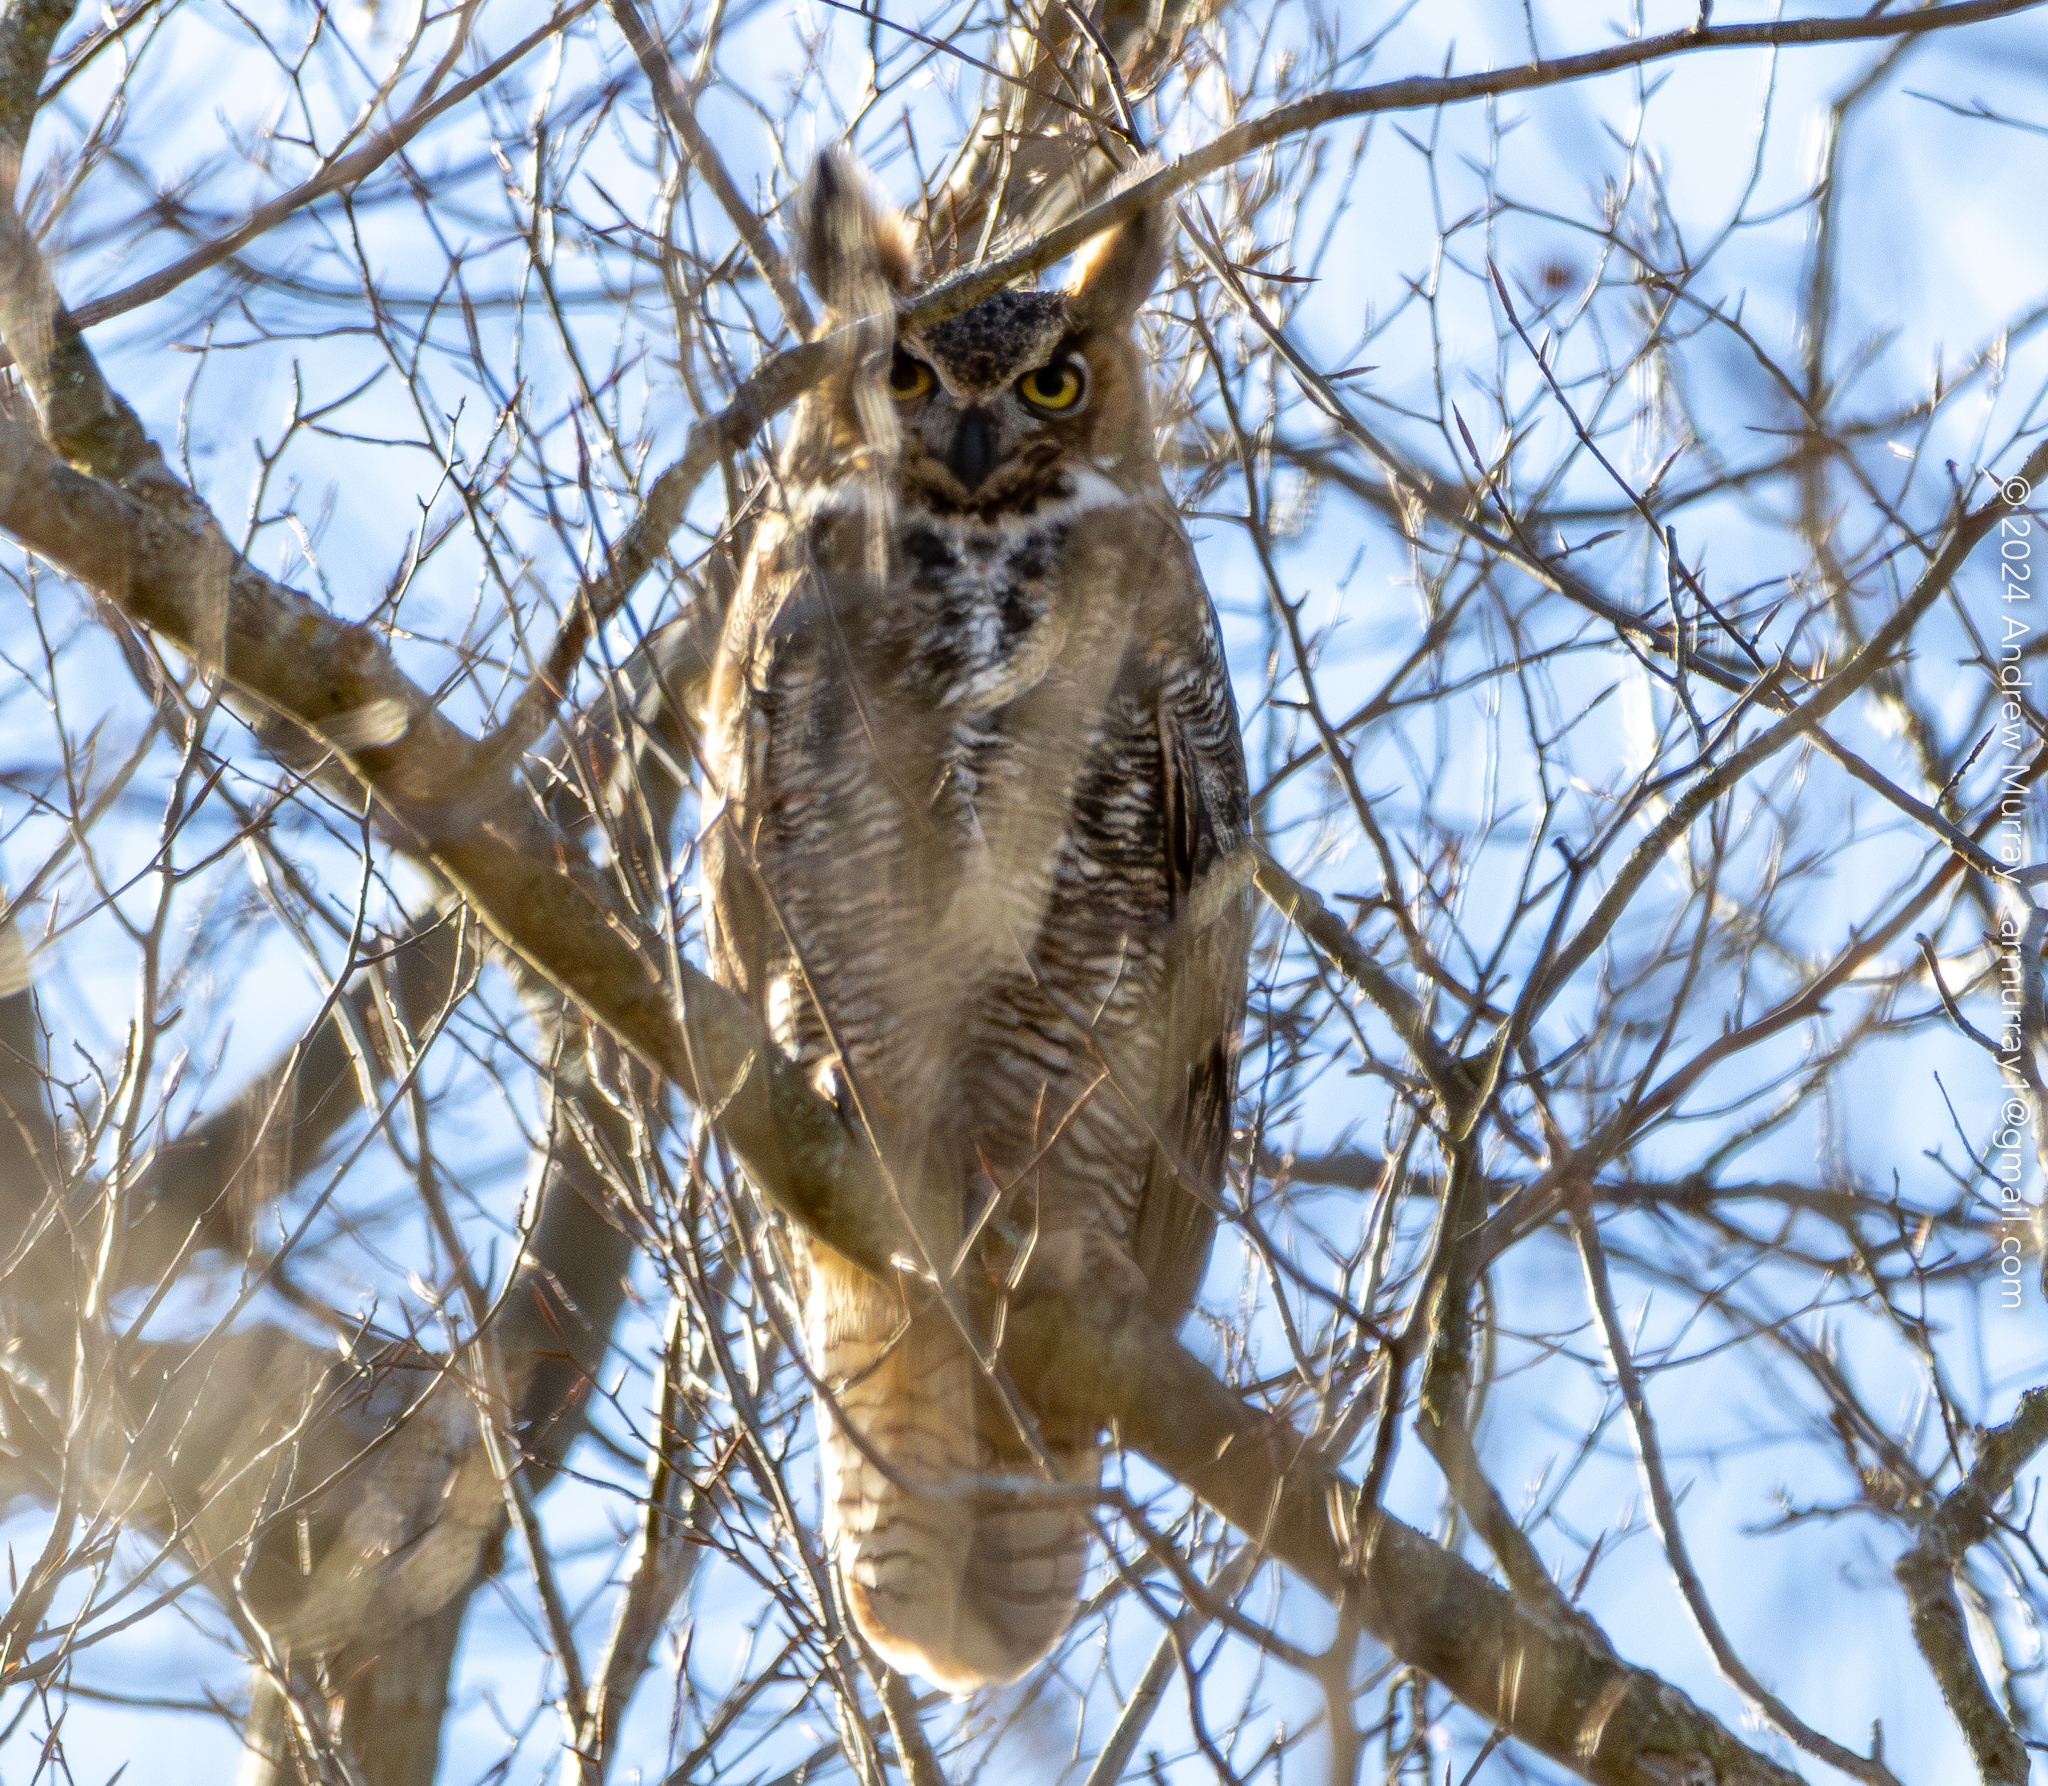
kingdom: Animalia
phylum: Chordata
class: Aves
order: Strigiformes
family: Strigidae
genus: Bubo
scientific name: Bubo virginianus
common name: Great horned owl
